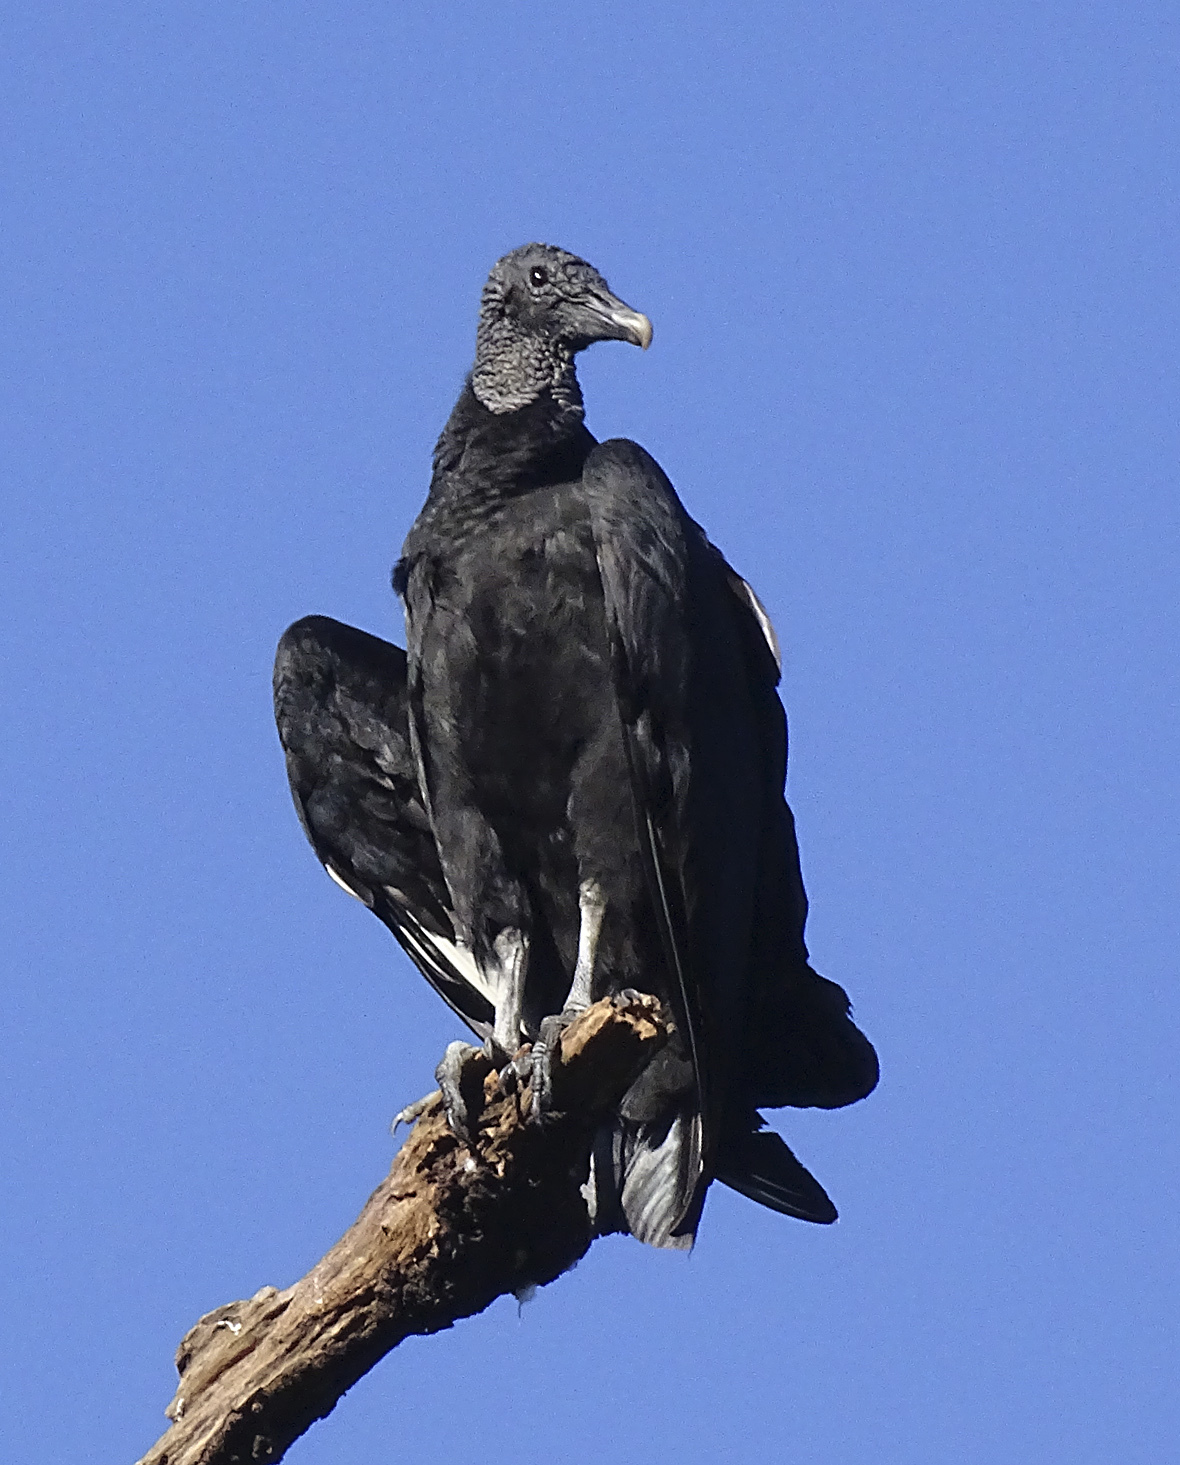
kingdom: Animalia
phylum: Chordata
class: Aves
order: Accipitriformes
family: Cathartidae
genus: Coragyps
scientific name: Coragyps atratus
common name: Black vulture
